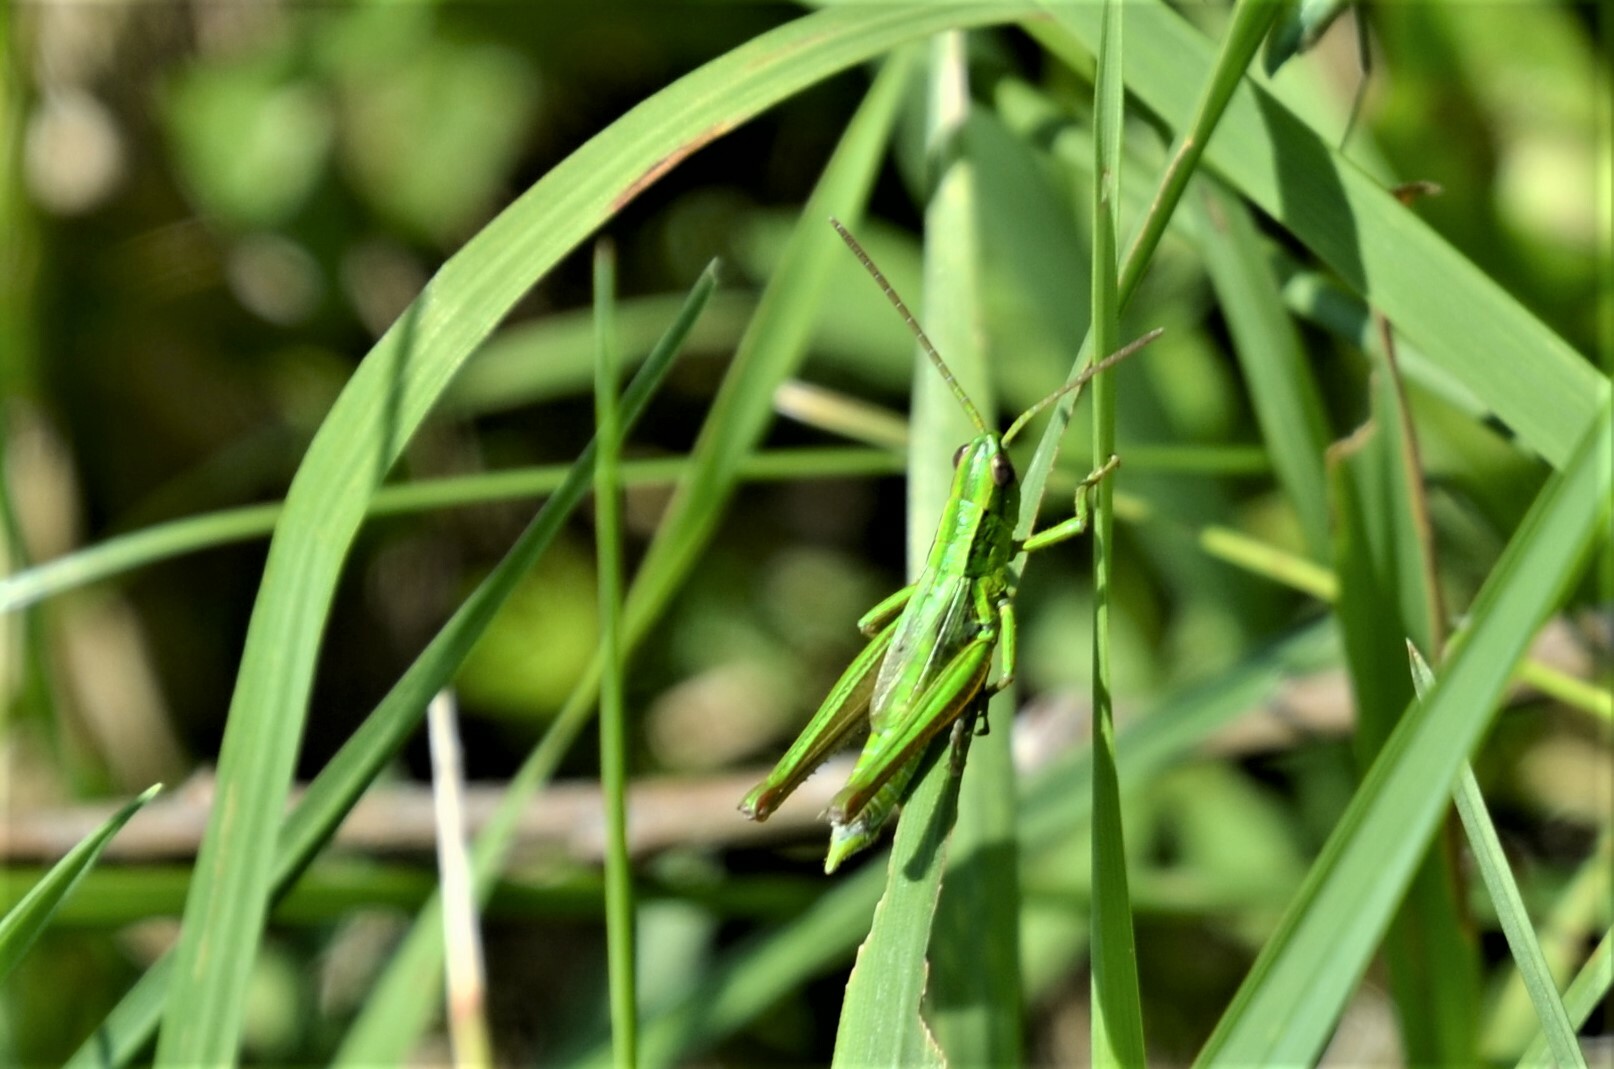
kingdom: Animalia
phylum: Arthropoda
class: Insecta
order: Orthoptera
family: Acrididae
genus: Euthystira
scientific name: Euthystira brachyptera
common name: Small gold grasshopper
